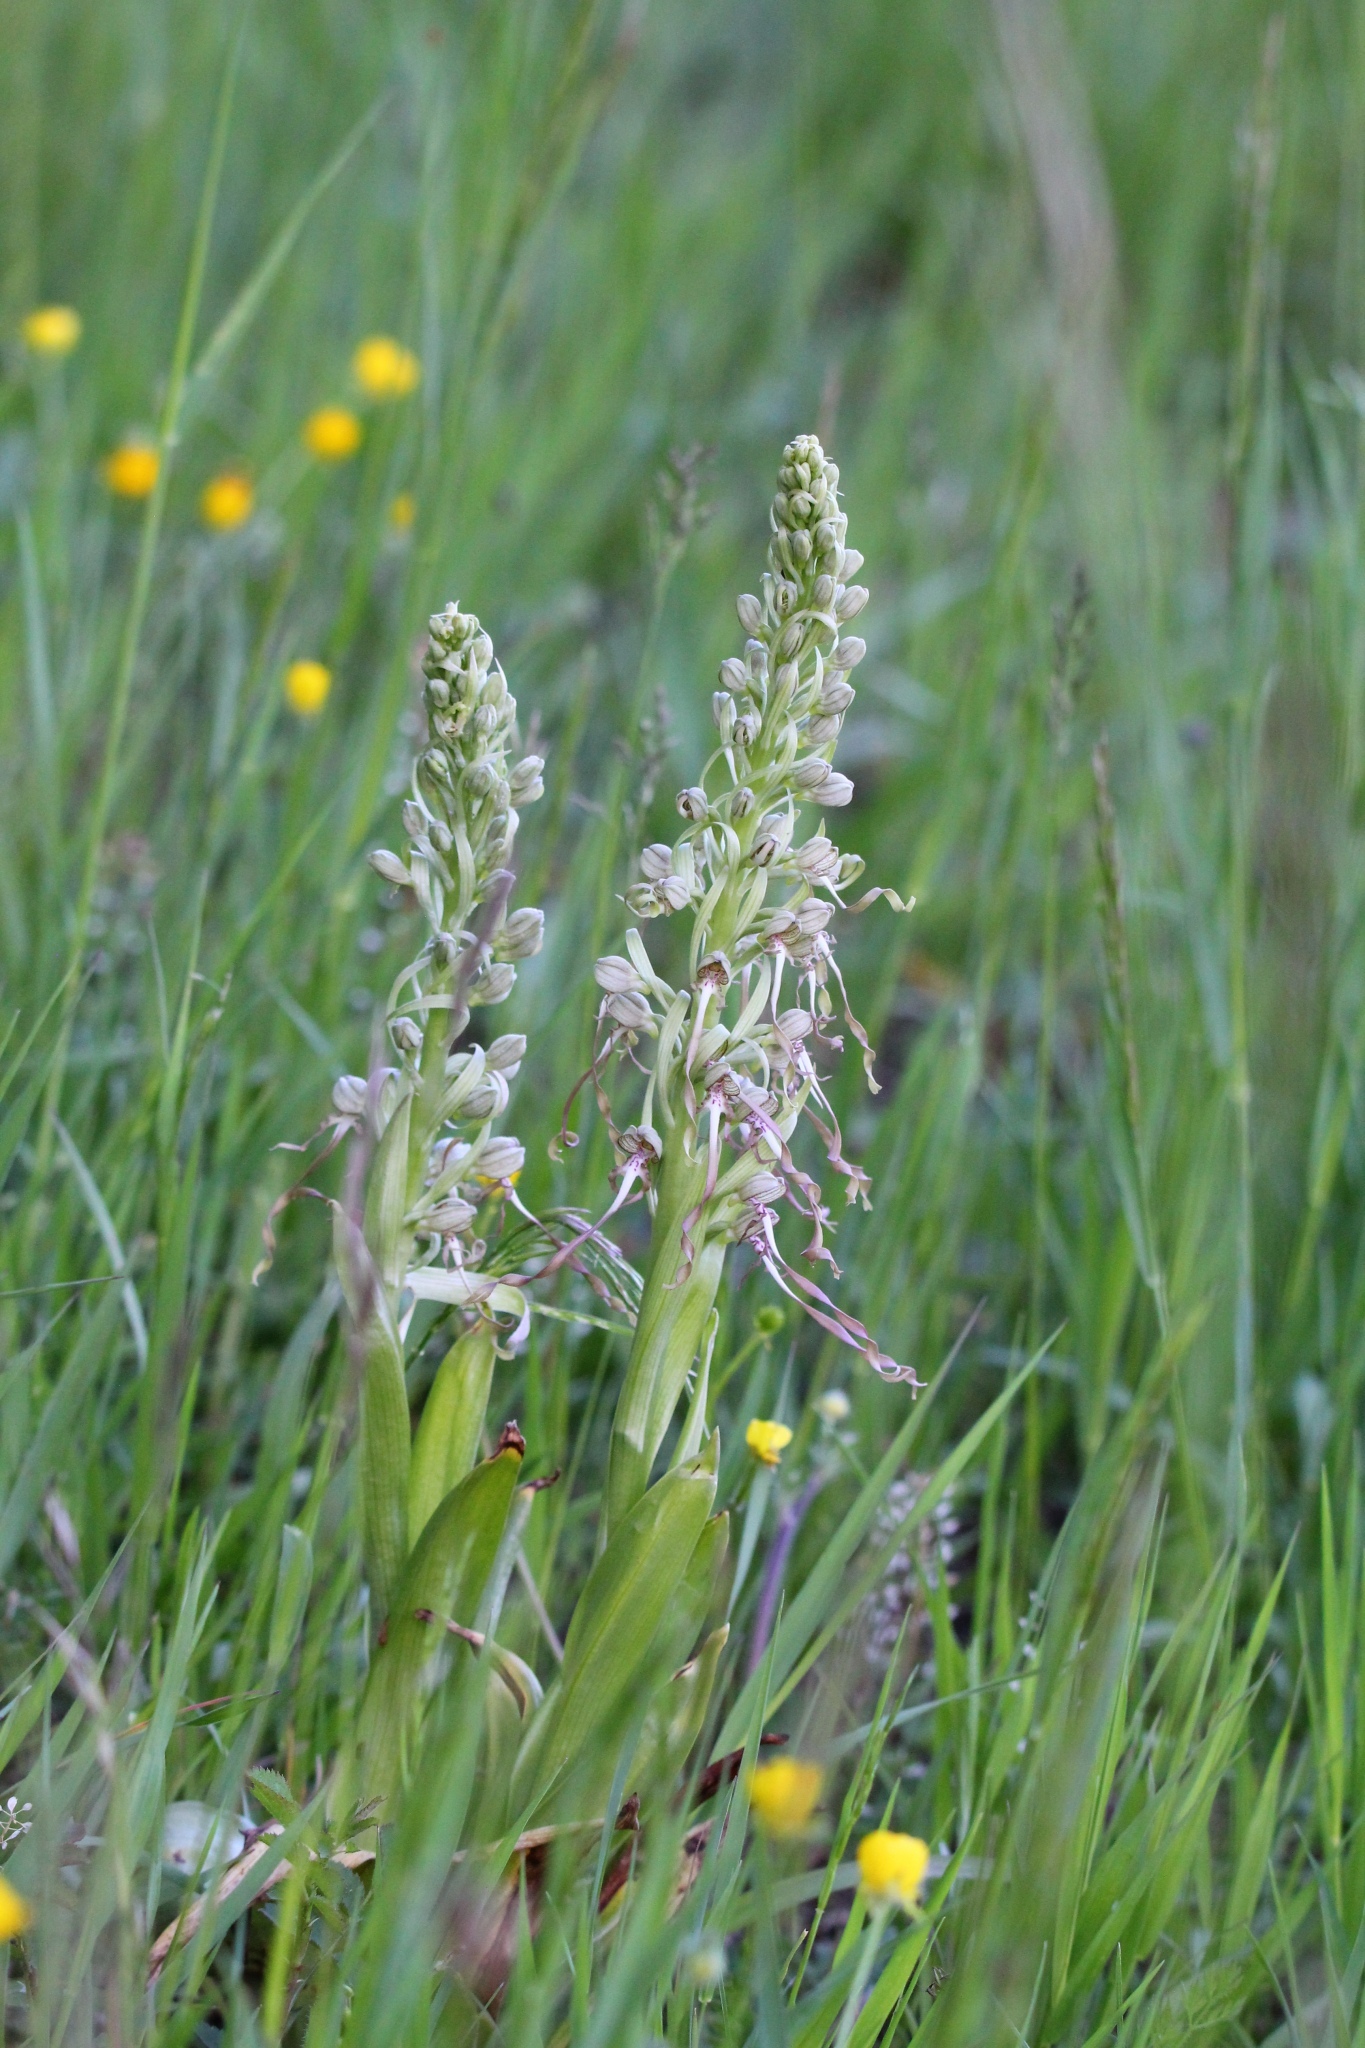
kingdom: Plantae
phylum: Tracheophyta
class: Liliopsida
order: Asparagales
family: Orchidaceae
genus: Himantoglossum
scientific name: Himantoglossum hircinum
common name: Lizard orchid
